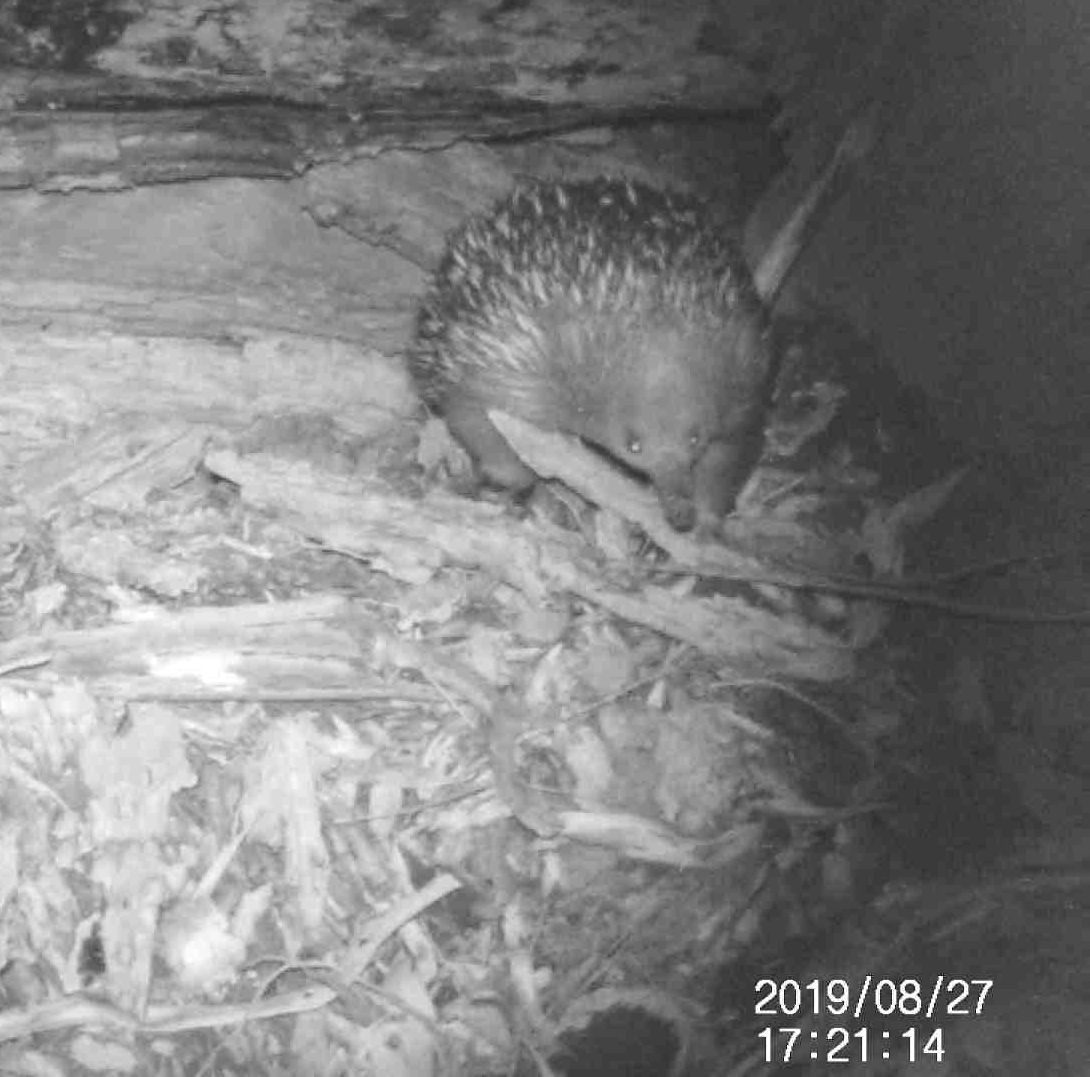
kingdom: Animalia
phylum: Chordata
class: Mammalia
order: Monotremata
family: Tachyglossidae
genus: Tachyglossus
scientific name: Tachyglossus aculeatus
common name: Short-beaked echidna
